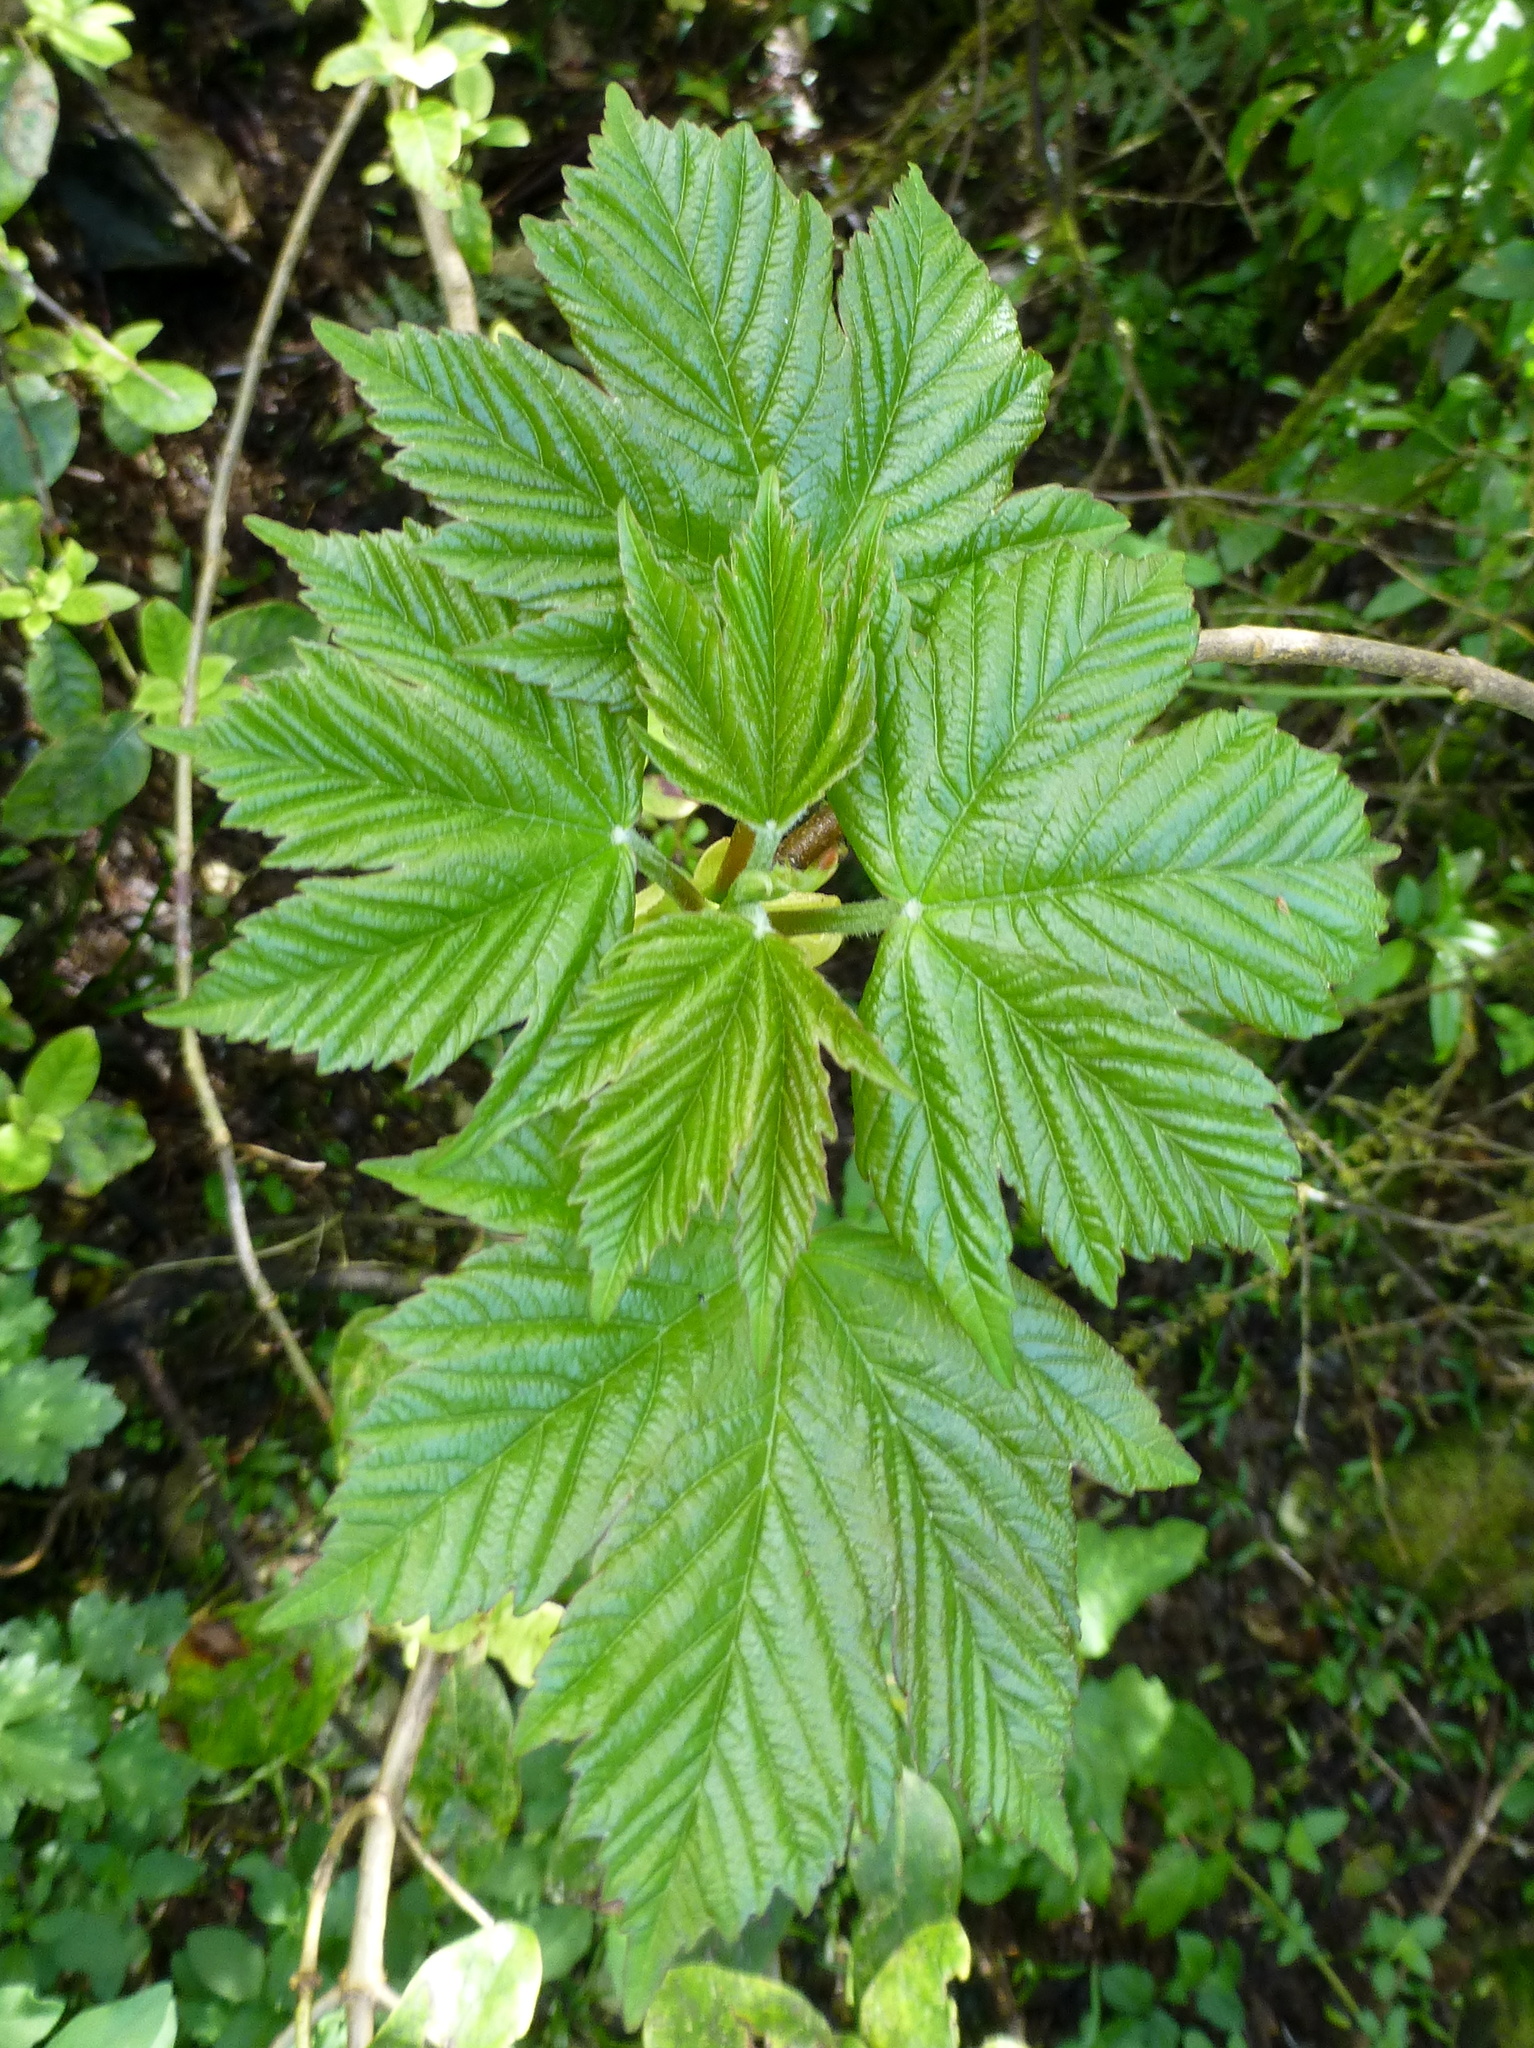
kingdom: Plantae
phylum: Tracheophyta
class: Magnoliopsida
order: Sapindales
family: Sapindaceae
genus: Acer
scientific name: Acer pseudoplatanus
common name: Sycamore
